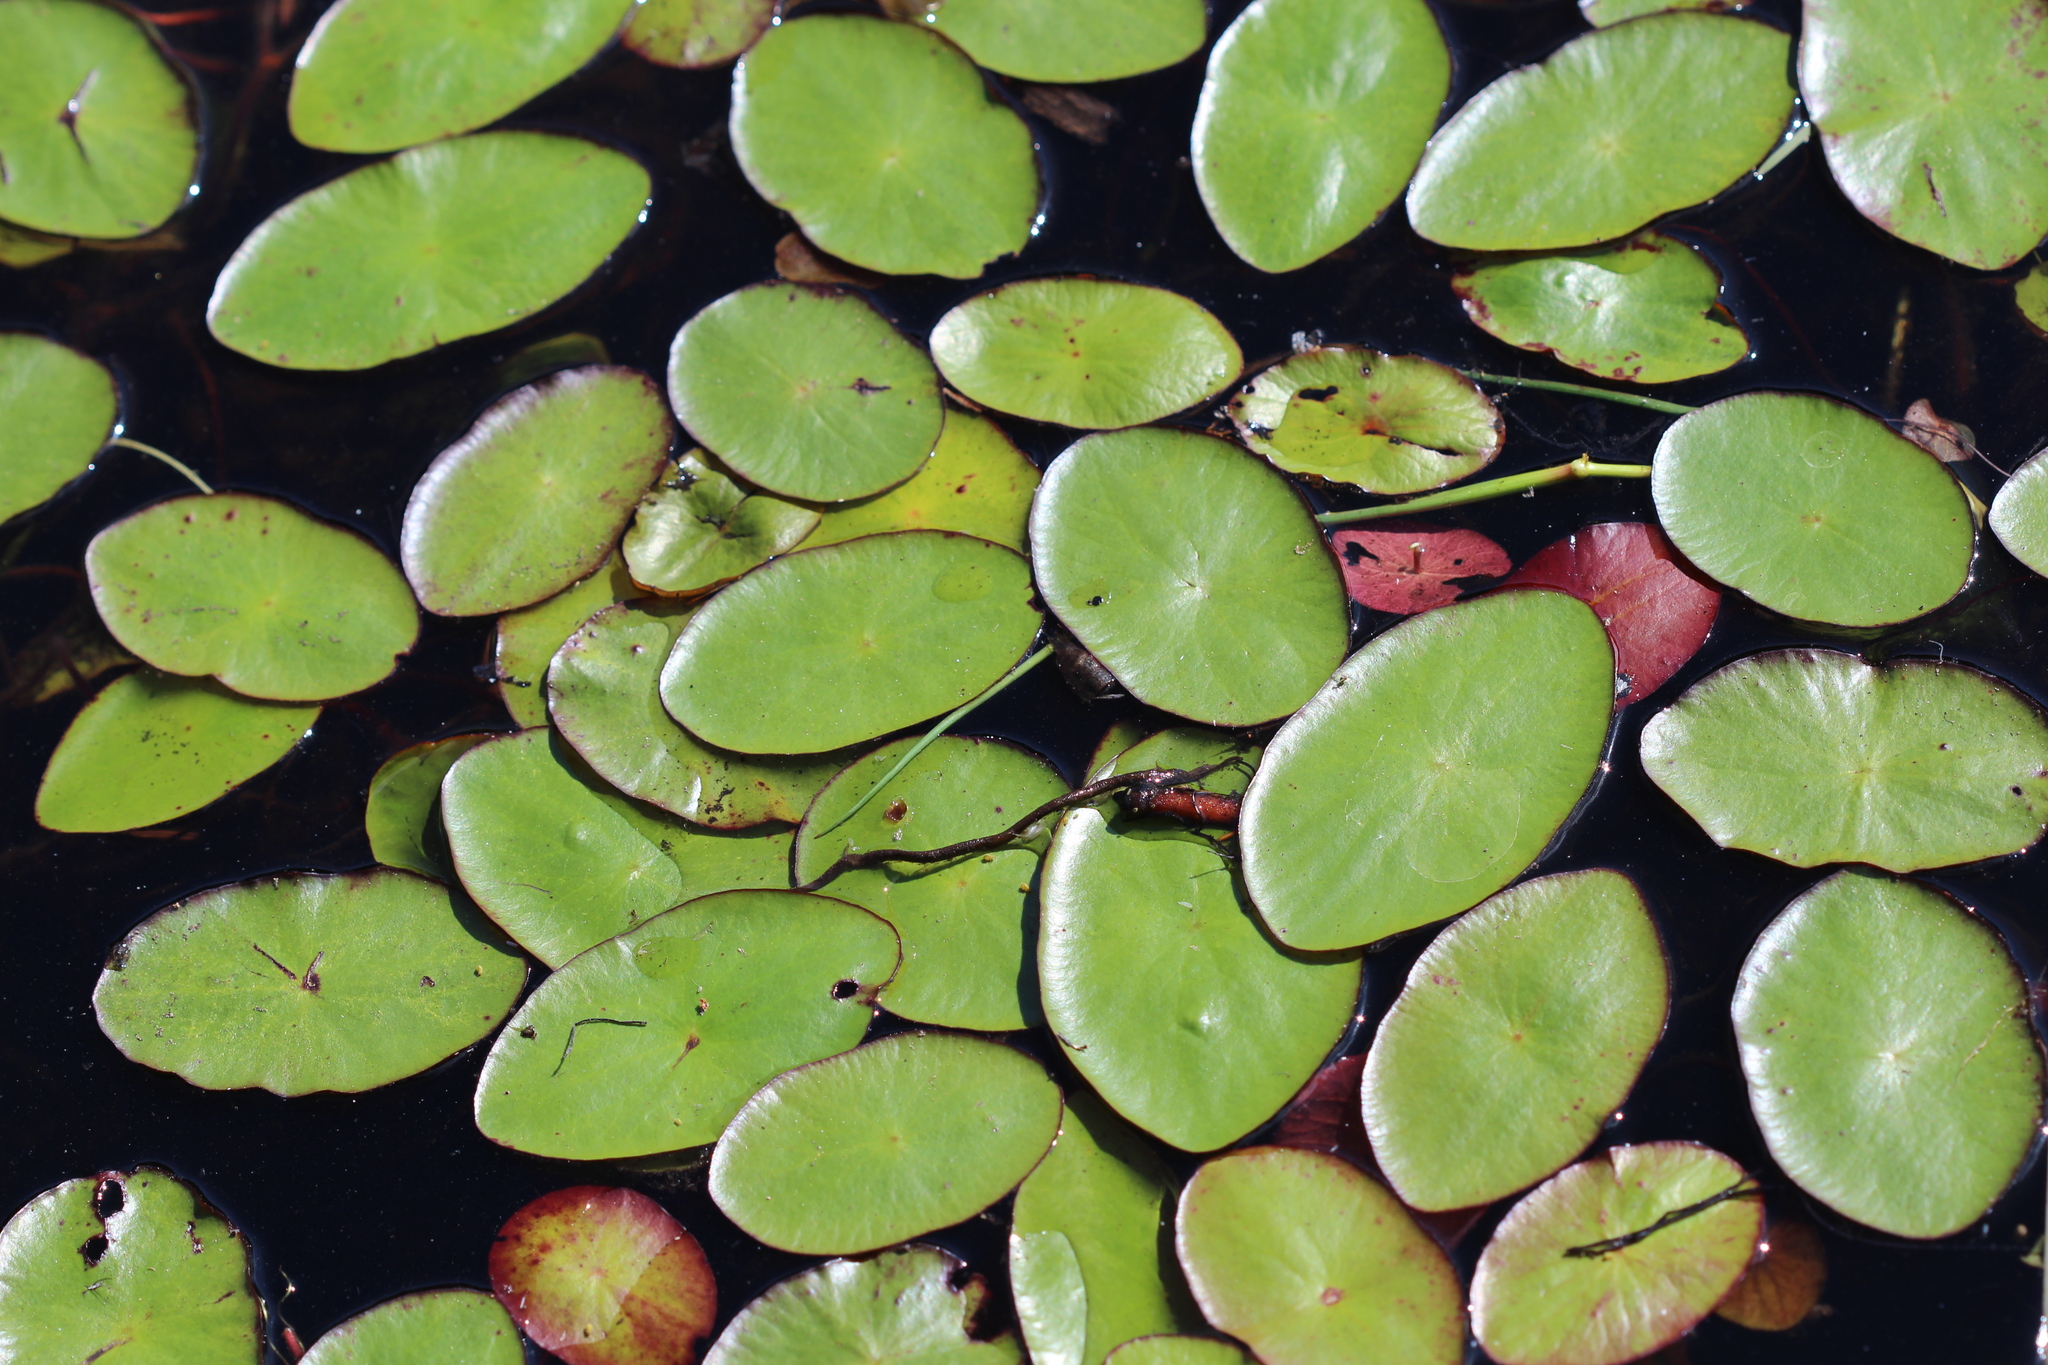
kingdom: Plantae
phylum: Tracheophyta
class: Magnoliopsida
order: Nymphaeales
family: Cabombaceae
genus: Brasenia
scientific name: Brasenia schreberi
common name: Water-shield
